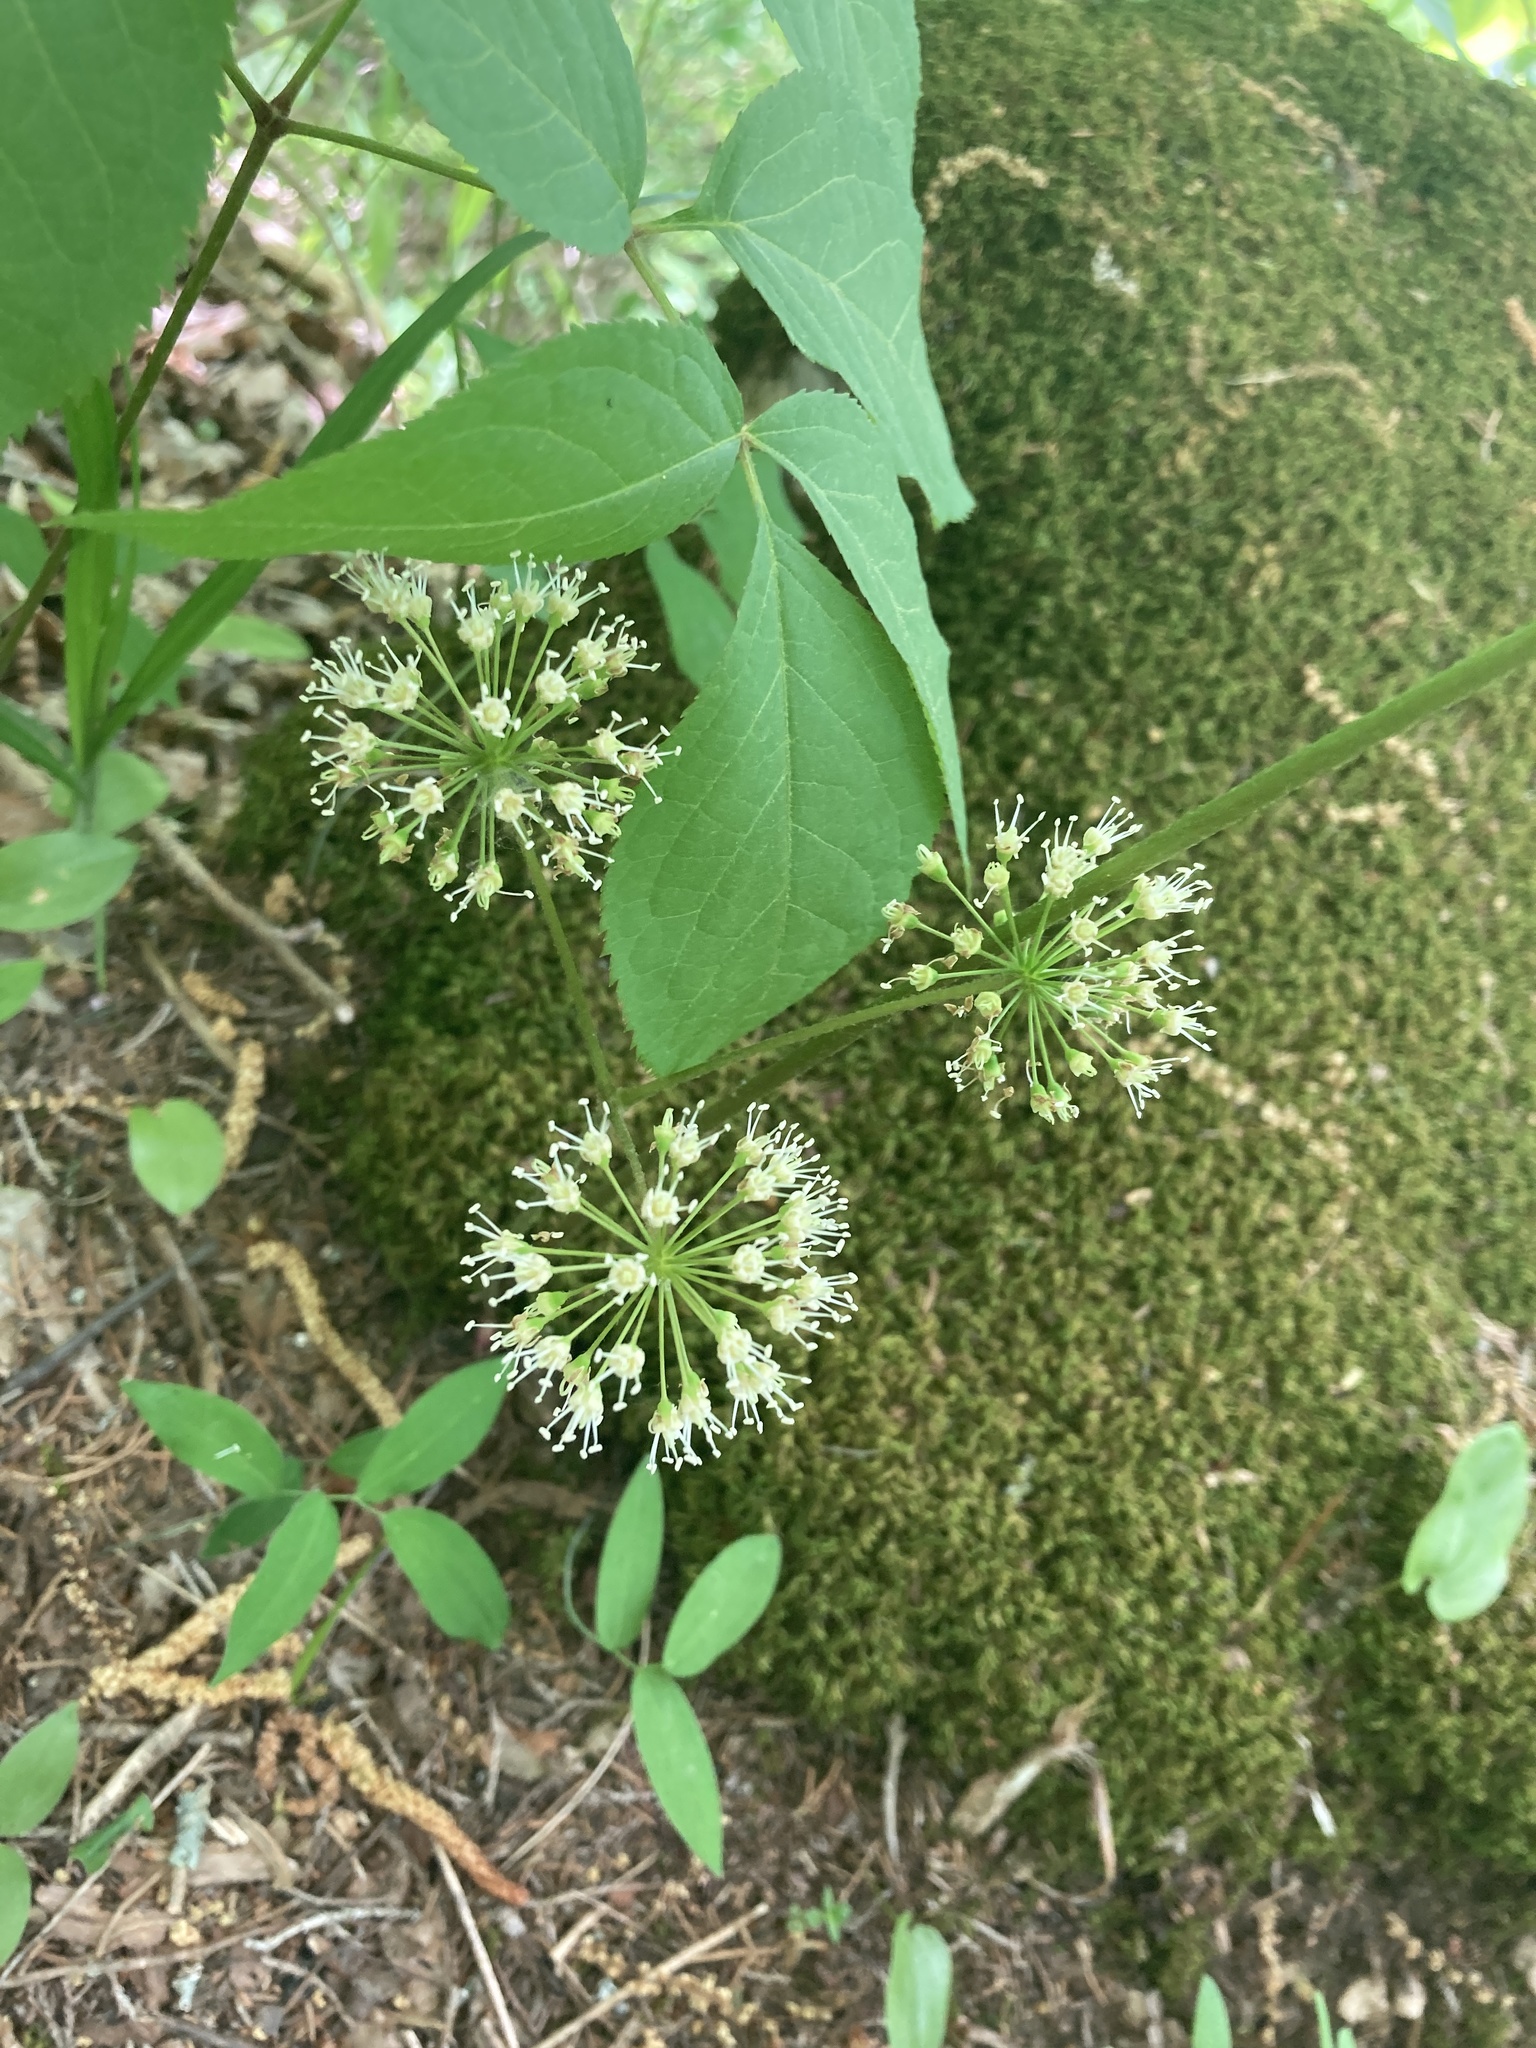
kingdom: Plantae
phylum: Tracheophyta
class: Magnoliopsida
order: Apiales
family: Araliaceae
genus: Aralia
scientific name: Aralia nudicaulis
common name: Wild sarsaparilla
